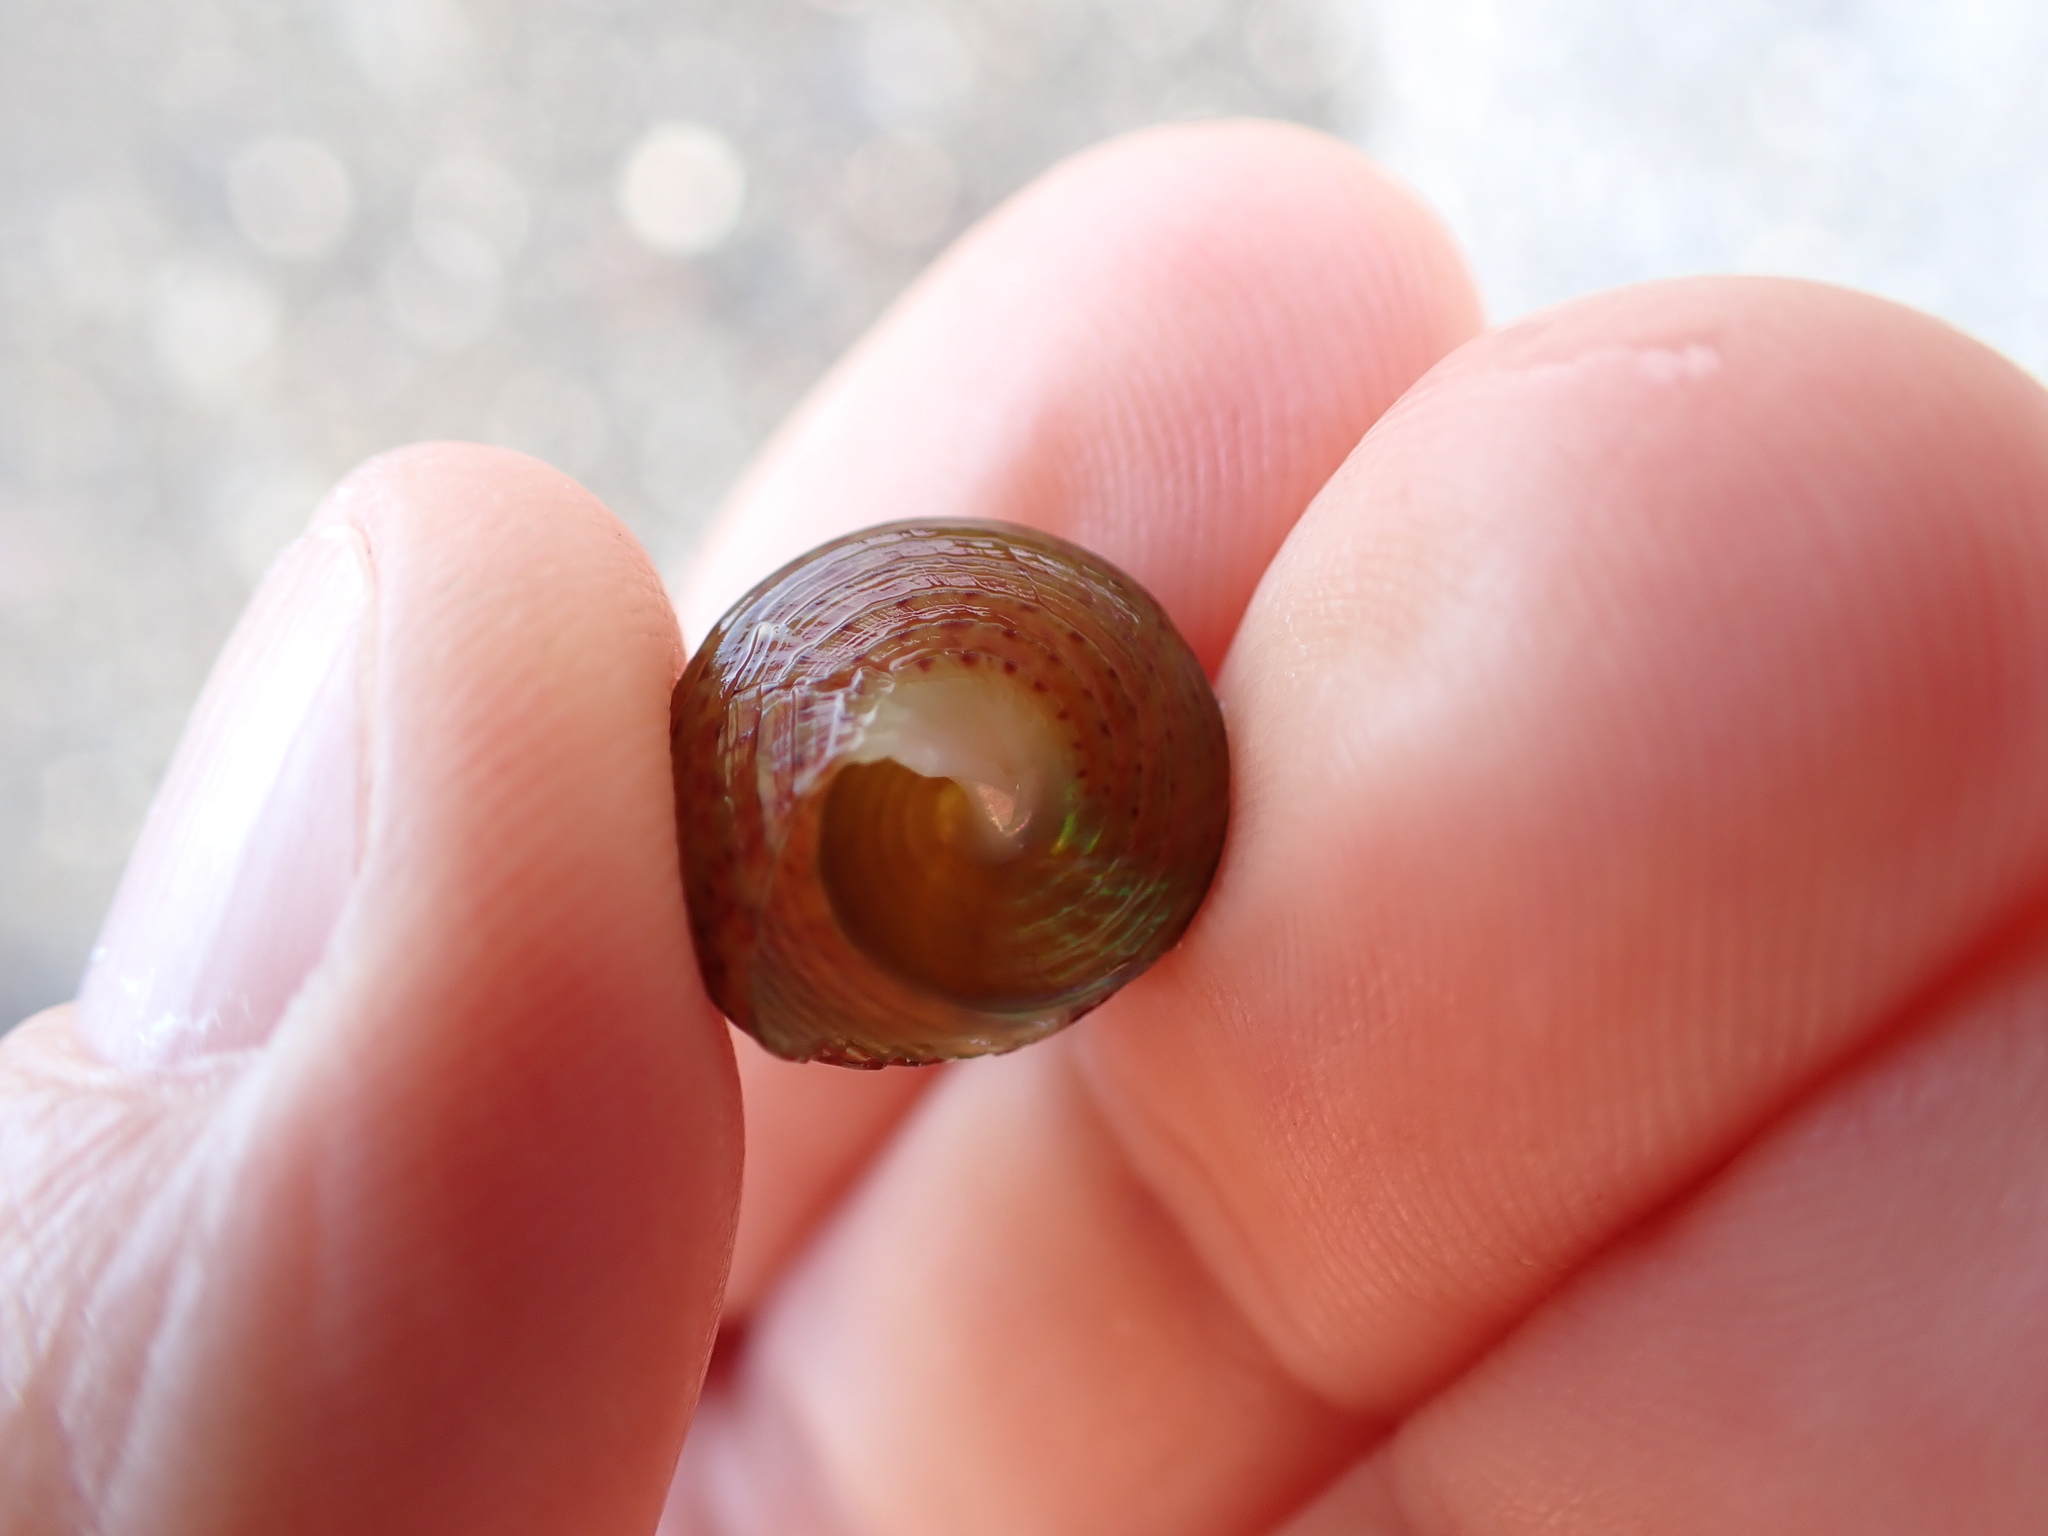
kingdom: Animalia
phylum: Mollusca
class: Gastropoda
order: Trochida
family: Trochidae
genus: Cantharidus
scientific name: Cantharidus opalus
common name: Opal jewel topsnail
